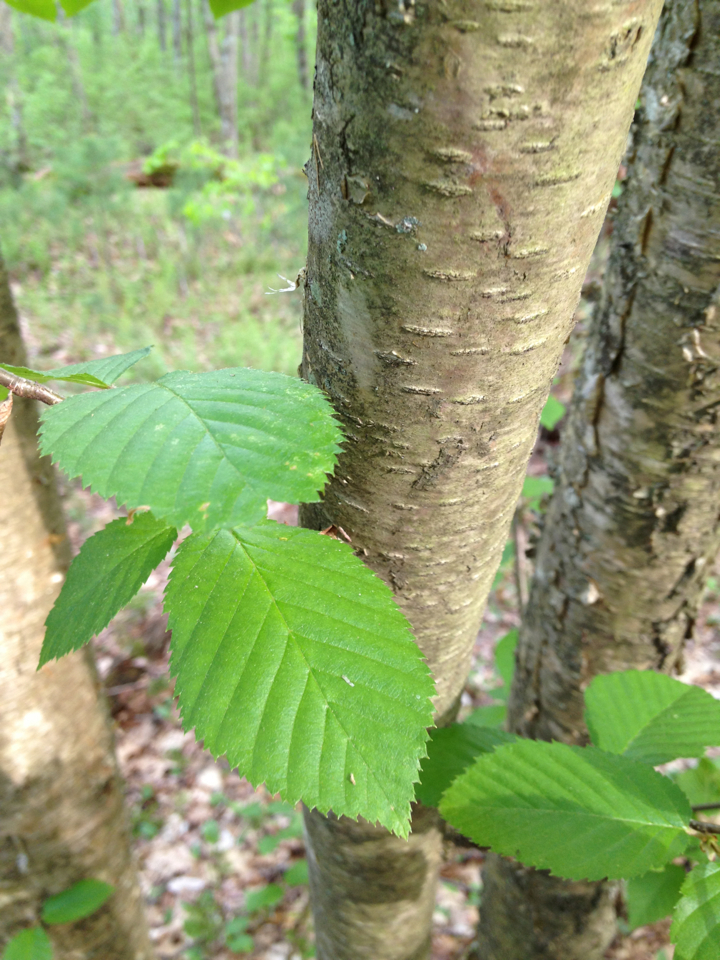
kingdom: Plantae
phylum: Tracheophyta
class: Magnoliopsida
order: Fagales
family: Betulaceae
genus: Betula
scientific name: Betula alleghaniensis
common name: Yellow birch
